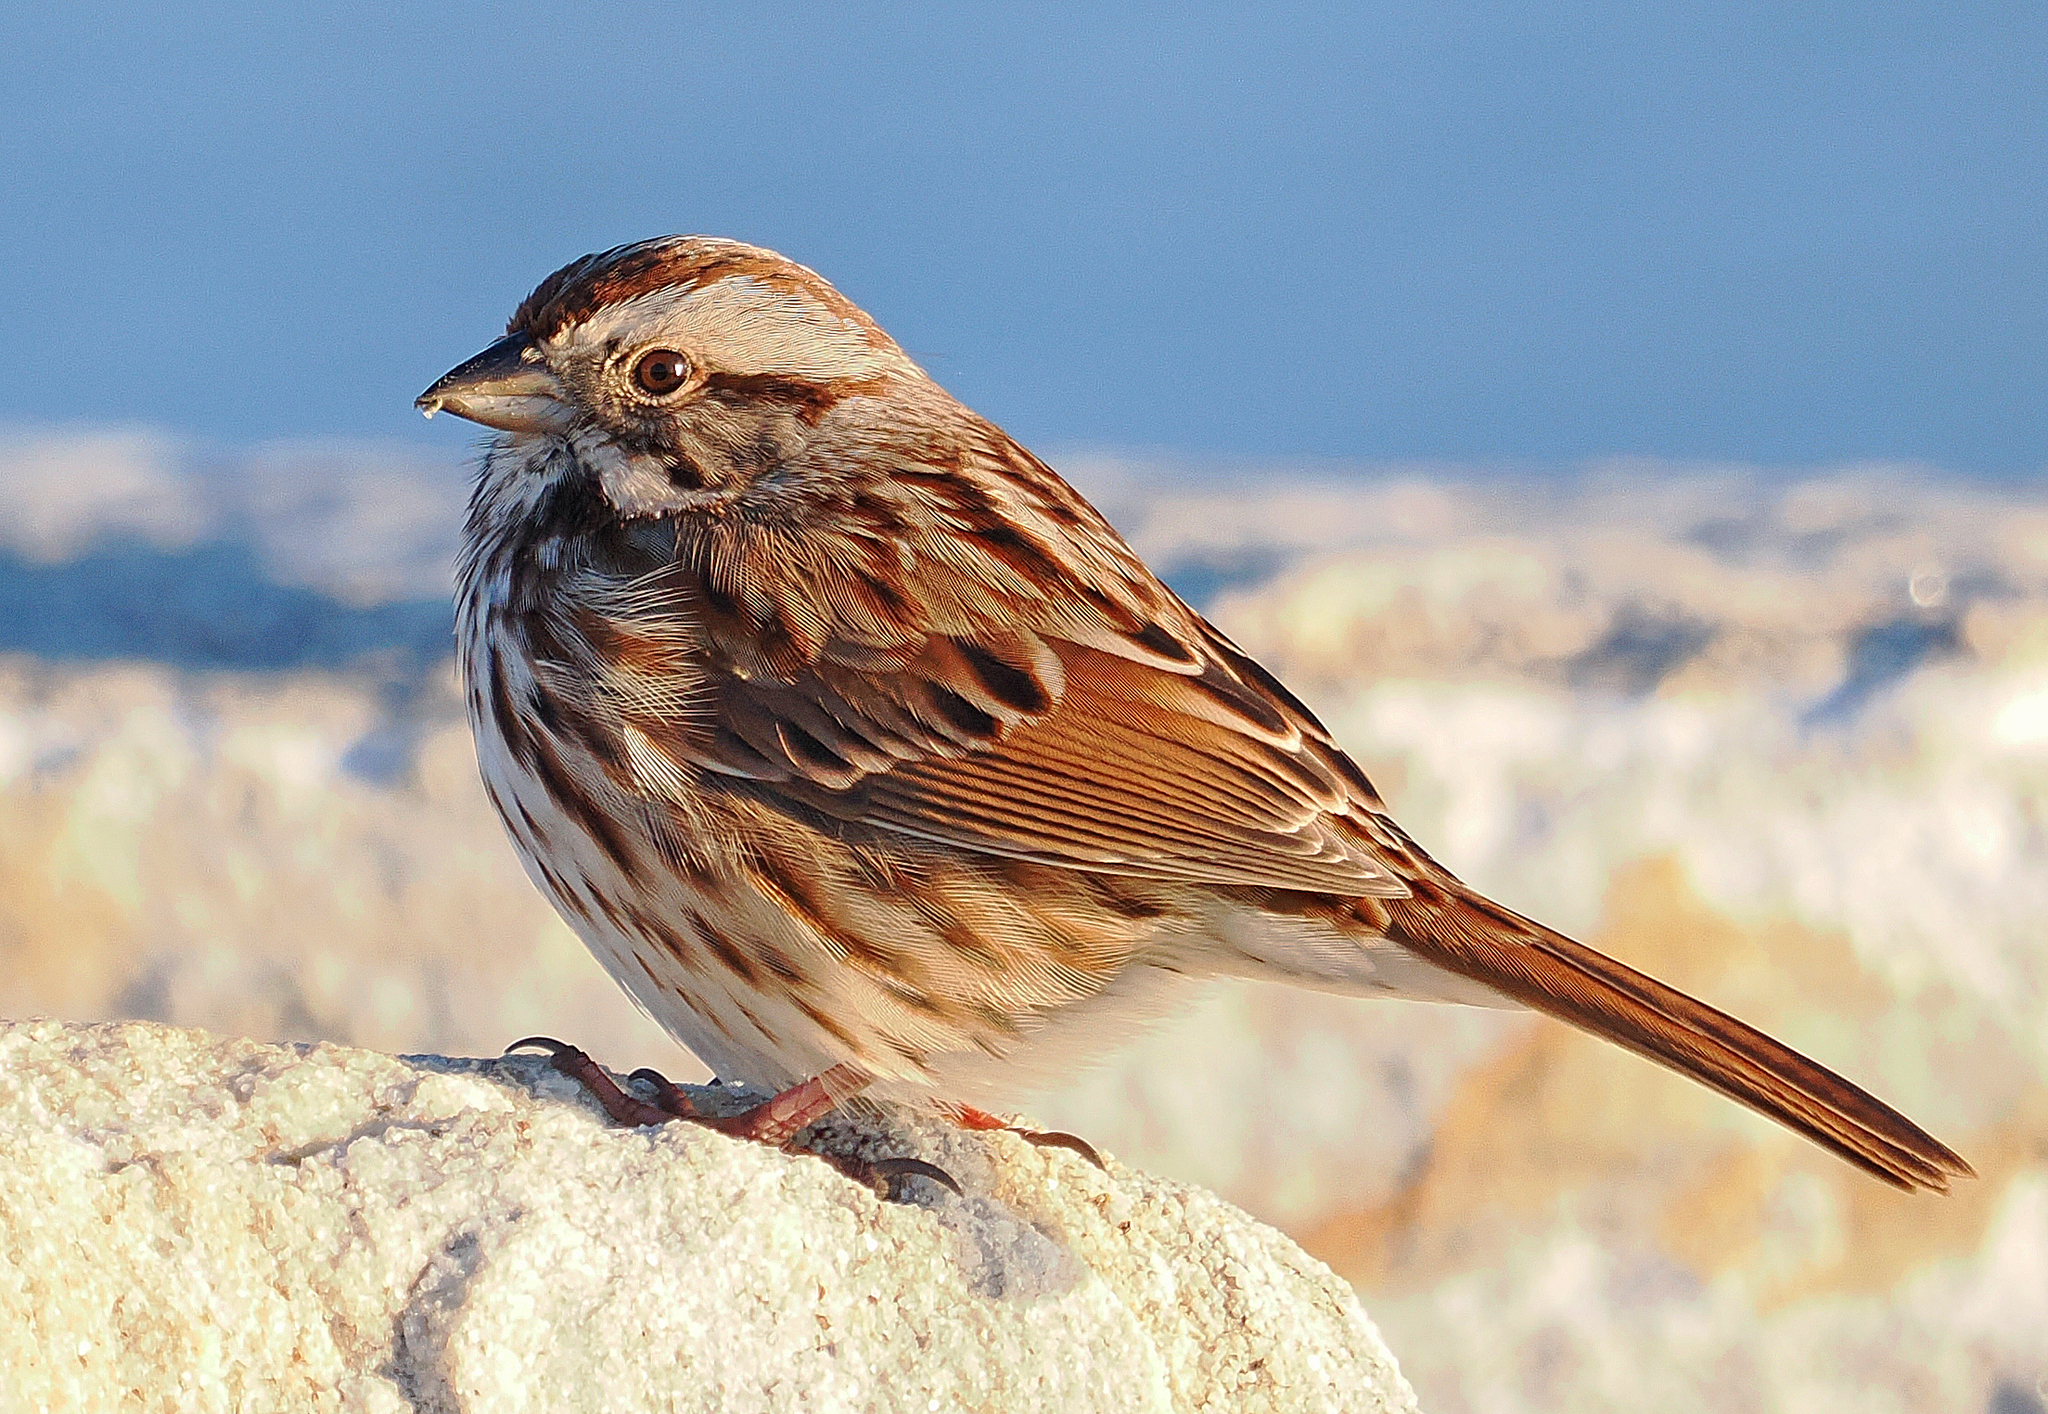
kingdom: Animalia
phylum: Chordata
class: Aves
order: Passeriformes
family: Passerellidae
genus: Melospiza
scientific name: Melospiza melodia
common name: Song sparrow
